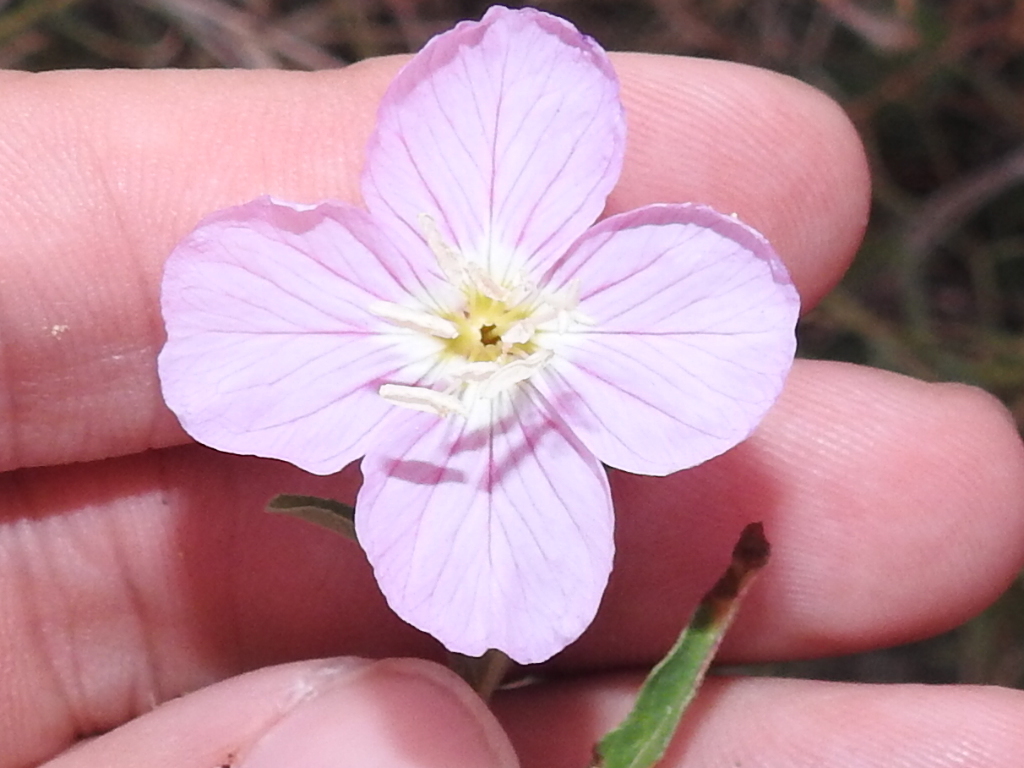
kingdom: Plantae
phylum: Tracheophyta
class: Magnoliopsida
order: Myrtales
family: Onagraceae
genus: Oenothera
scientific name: Oenothera speciosa
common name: White evening-primrose
